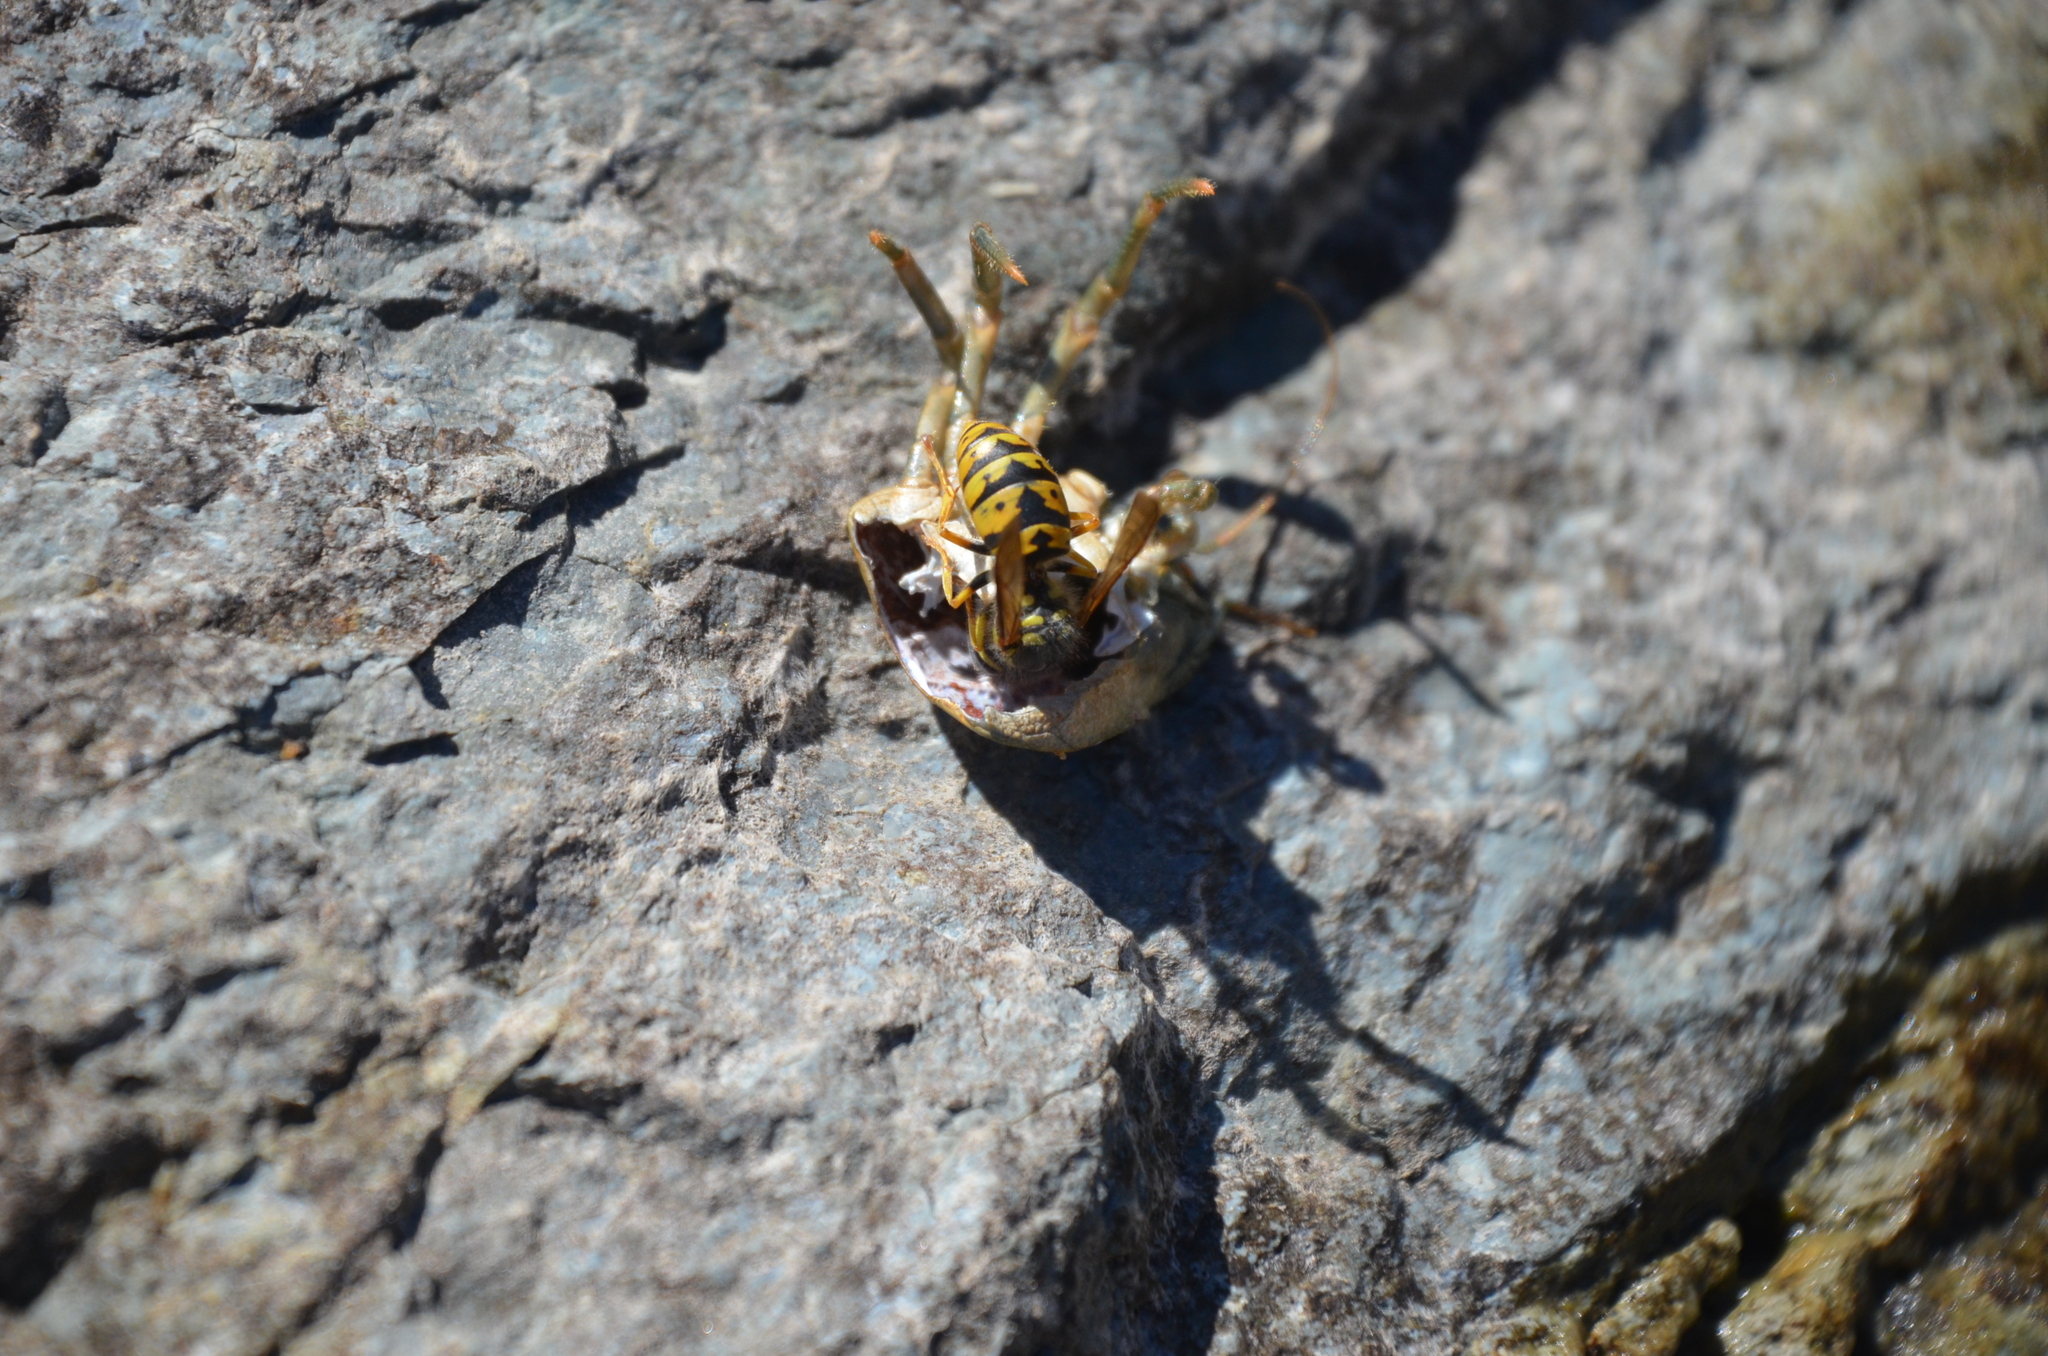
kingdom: Animalia
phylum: Arthropoda
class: Insecta
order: Hymenoptera
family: Vespidae
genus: Vespula
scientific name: Vespula germanica
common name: German wasp
